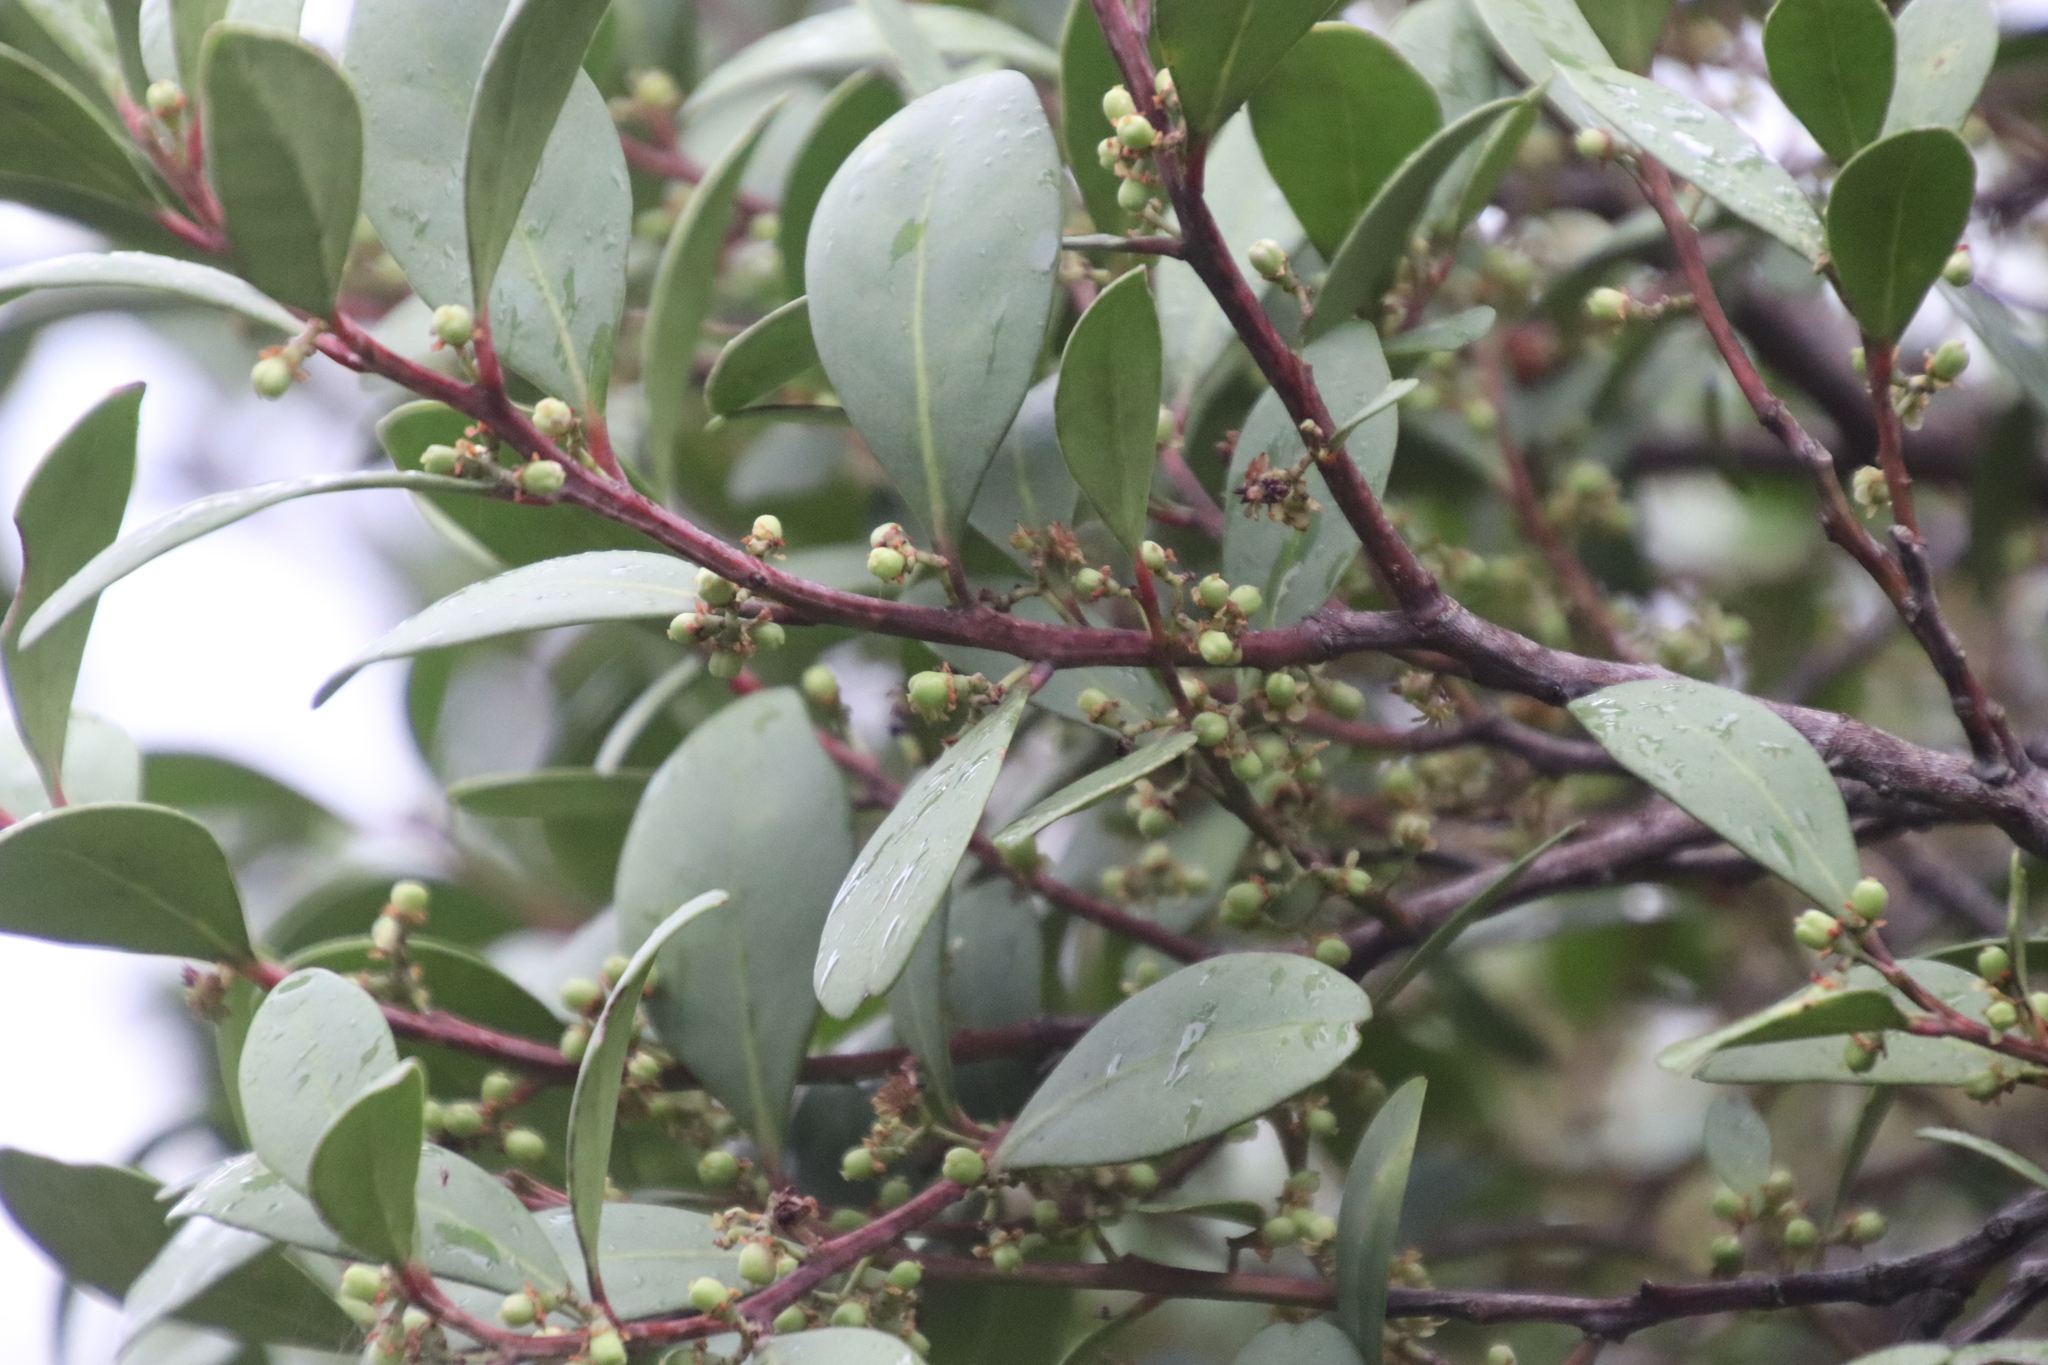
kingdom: Plantae
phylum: Tracheophyta
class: Magnoliopsida
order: Celastrales
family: Celastraceae
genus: Gymnosporia
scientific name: Gymnosporia laurina
